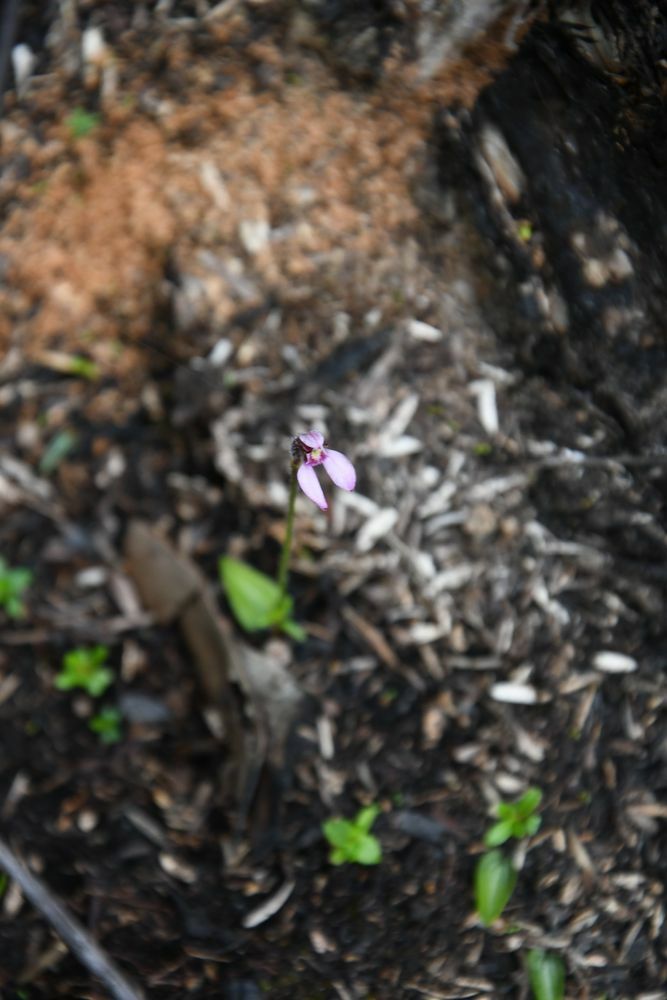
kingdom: Plantae
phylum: Tracheophyta
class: Liliopsida
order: Asparagales
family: Orchidaceae
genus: Eriochilus
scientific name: Eriochilus tenuis
